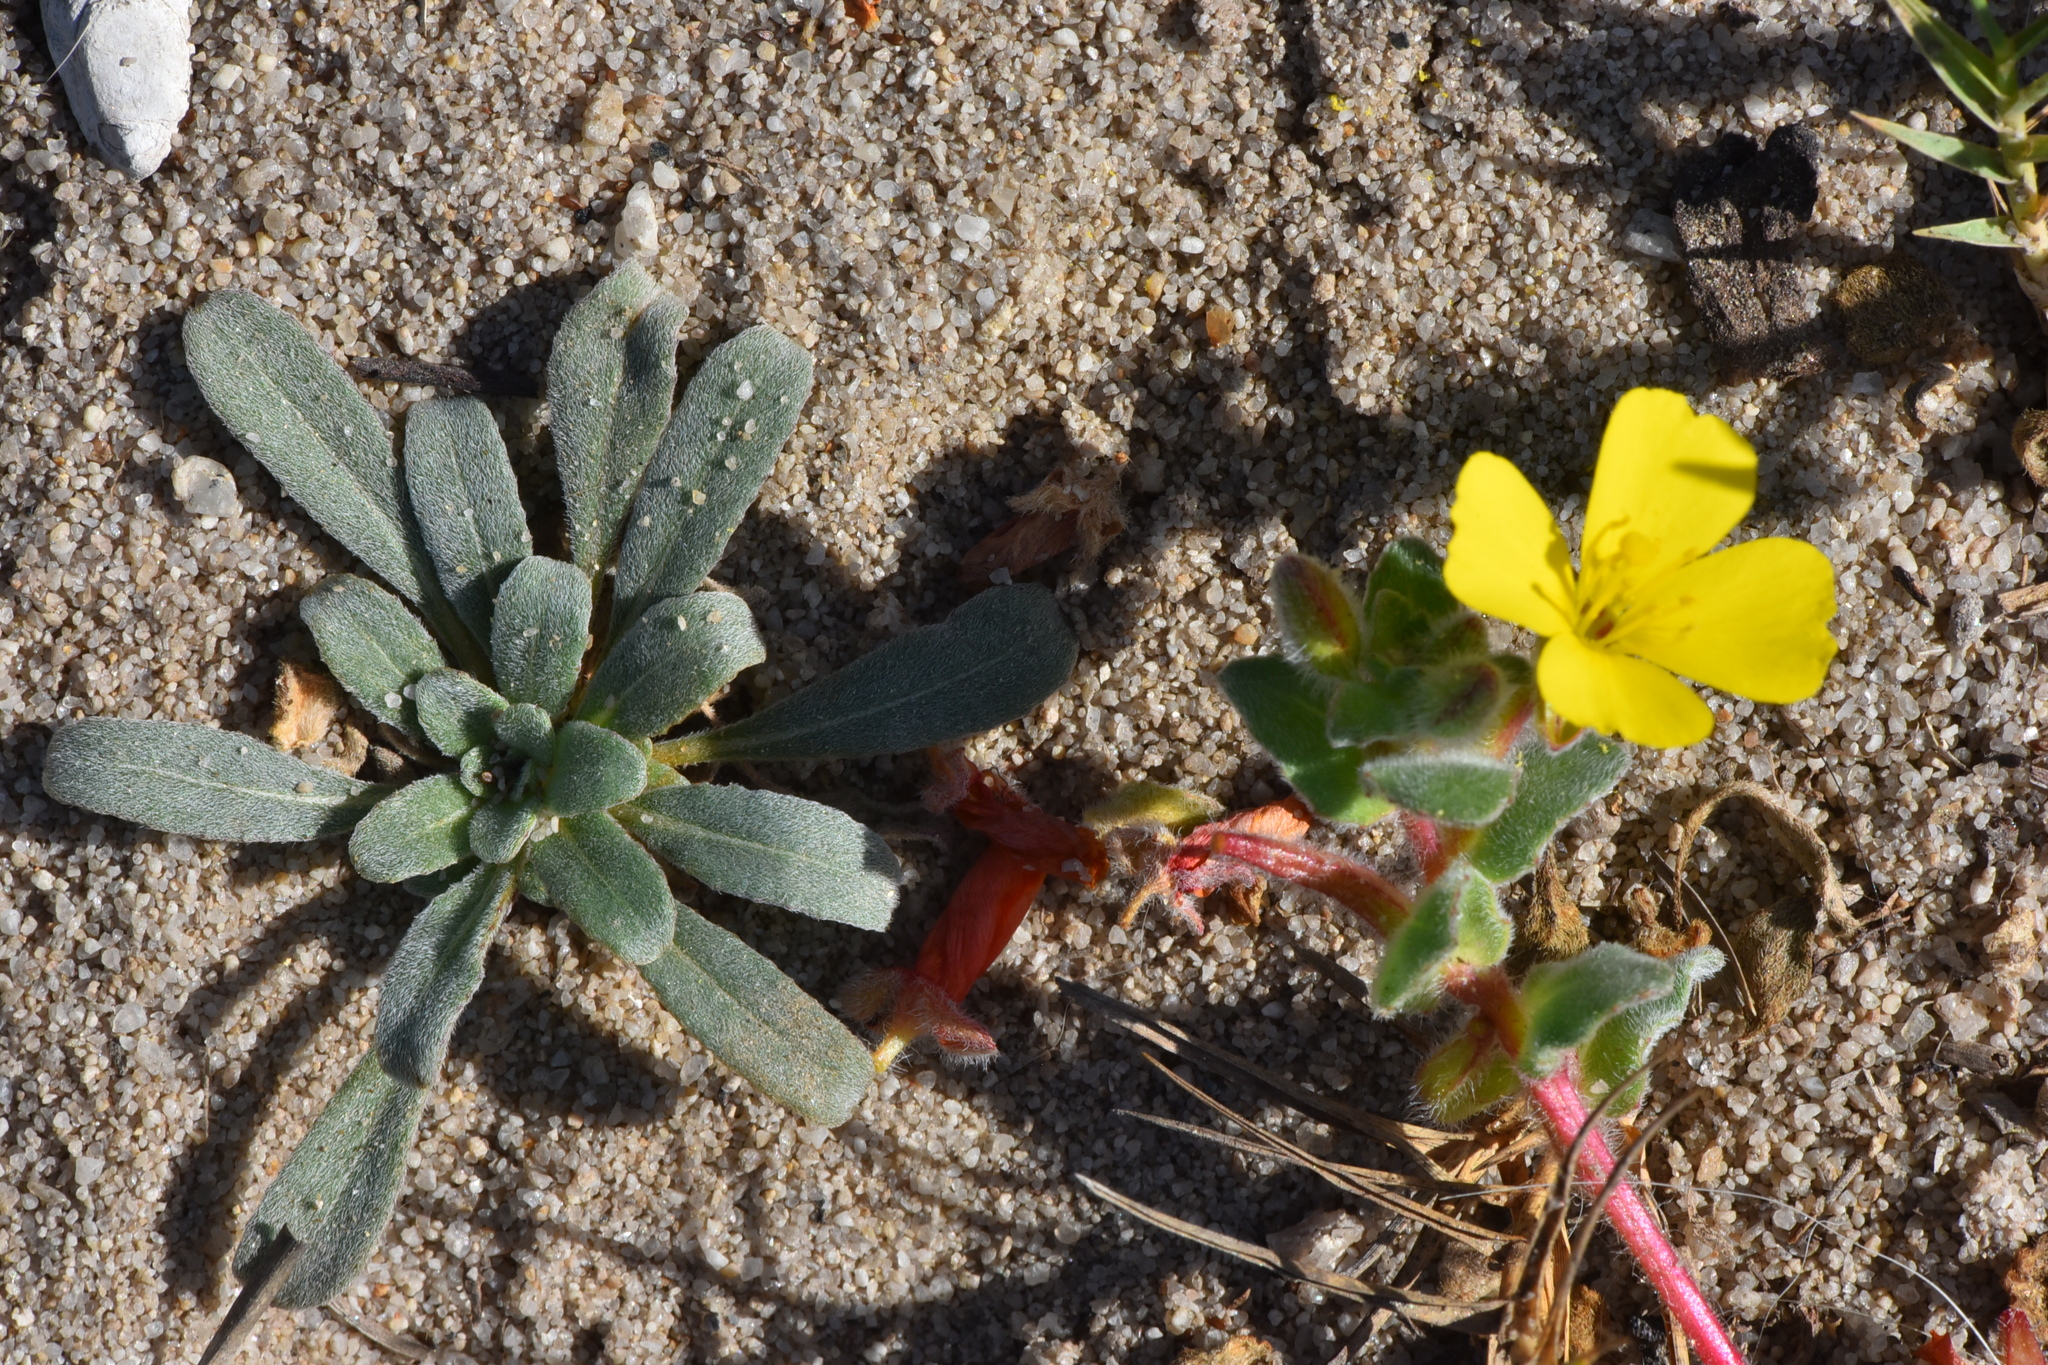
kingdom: Plantae
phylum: Tracheophyta
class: Magnoliopsida
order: Myrtales
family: Onagraceae
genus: Camissoniopsis
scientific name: Camissoniopsis cheiranthifolia
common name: Beach suncup
